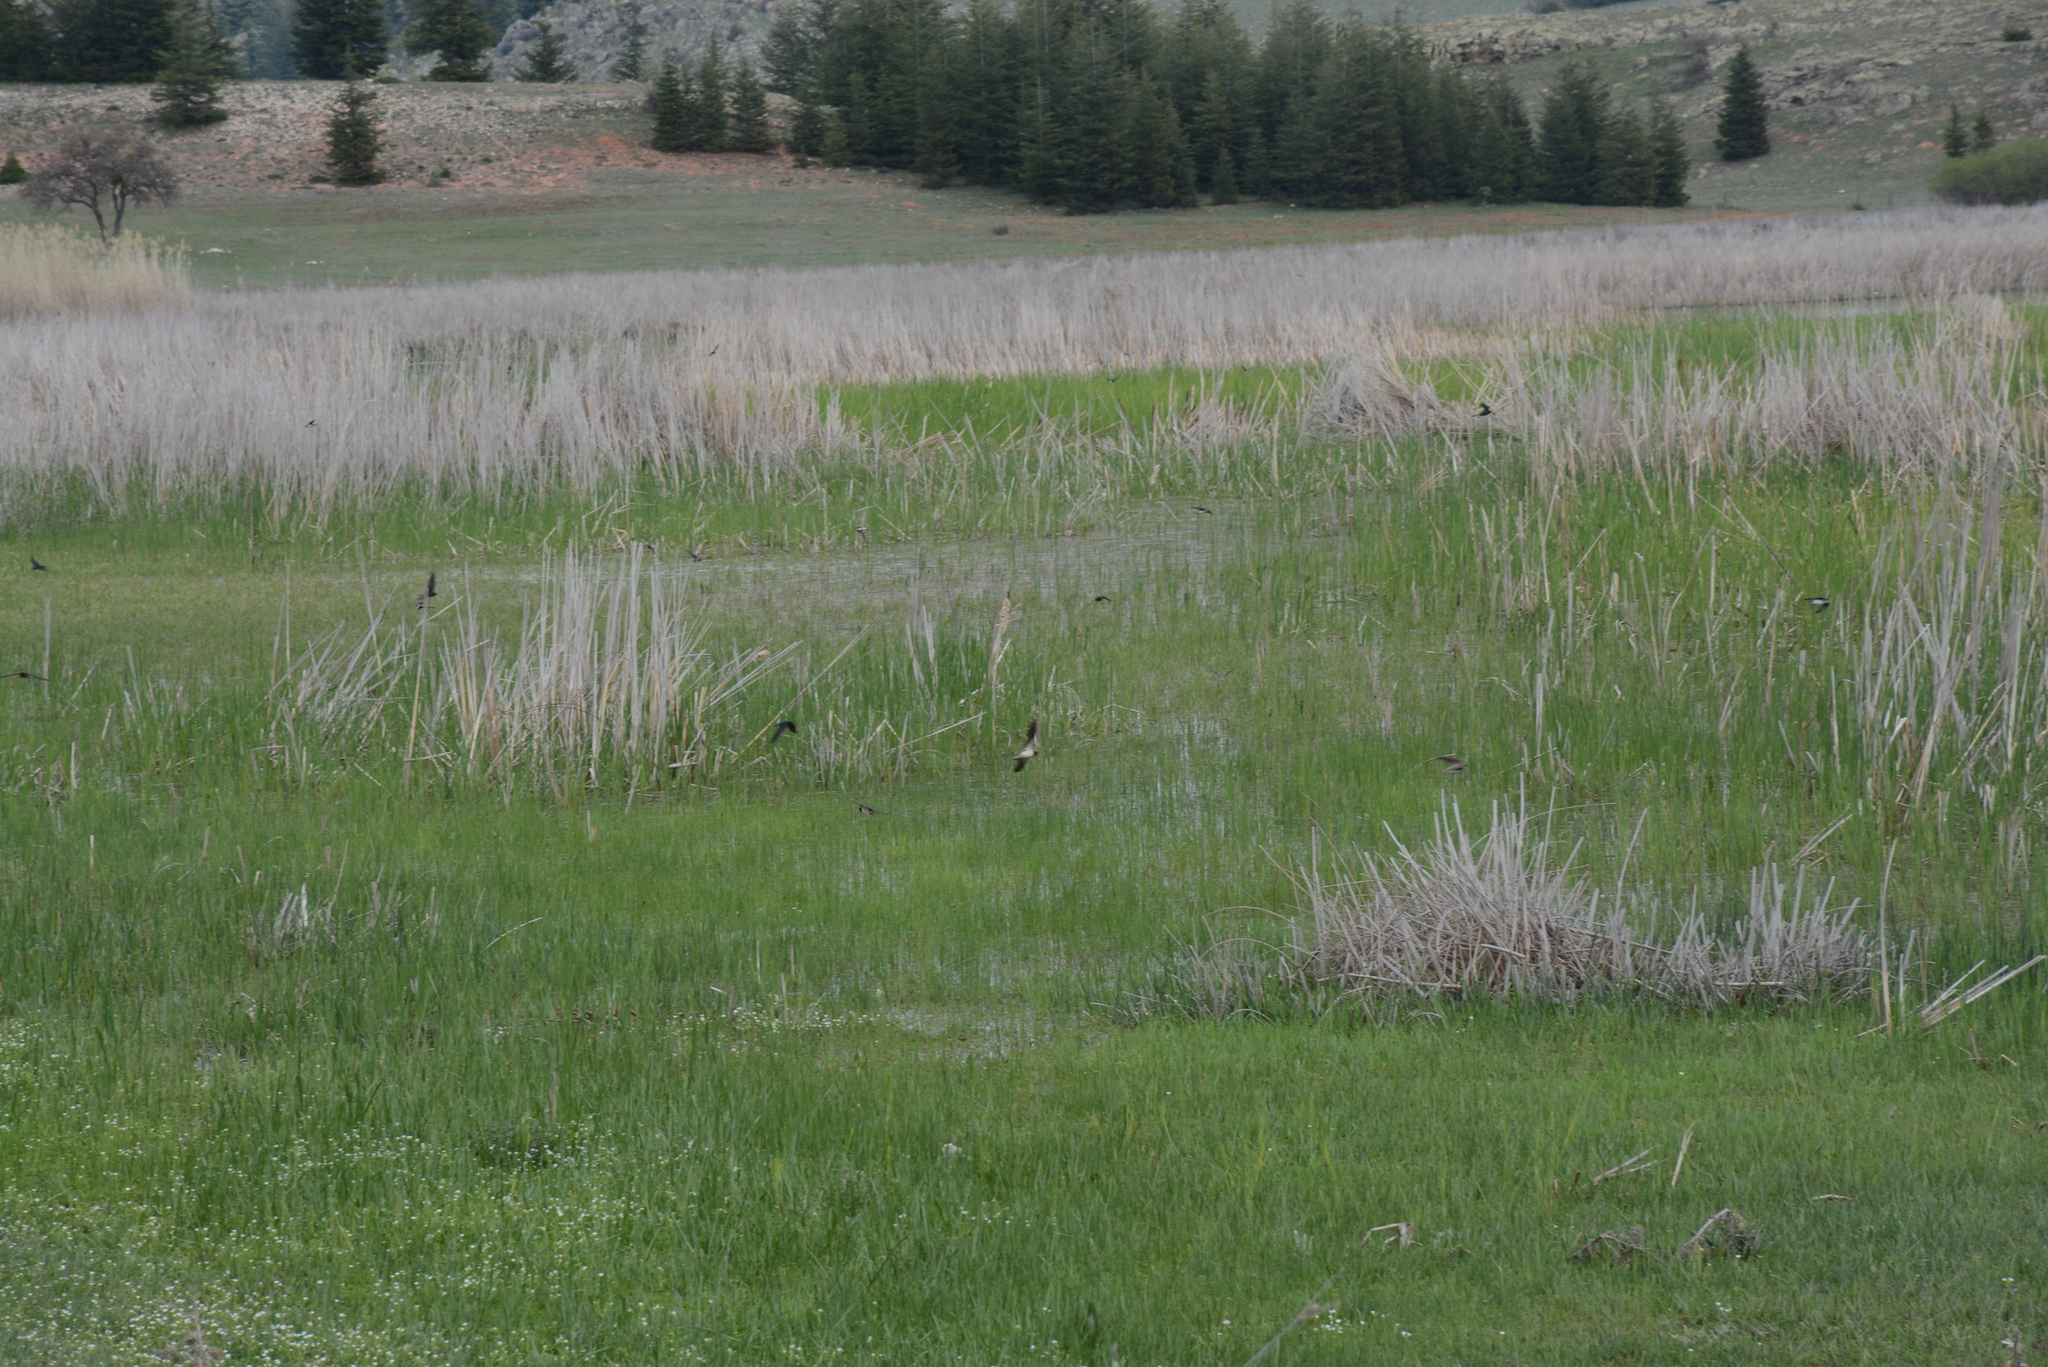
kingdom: Animalia
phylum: Chordata
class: Aves
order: Passeriformes
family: Hirundinidae
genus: Hirundo
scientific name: Hirundo rustica
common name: Barn swallow
